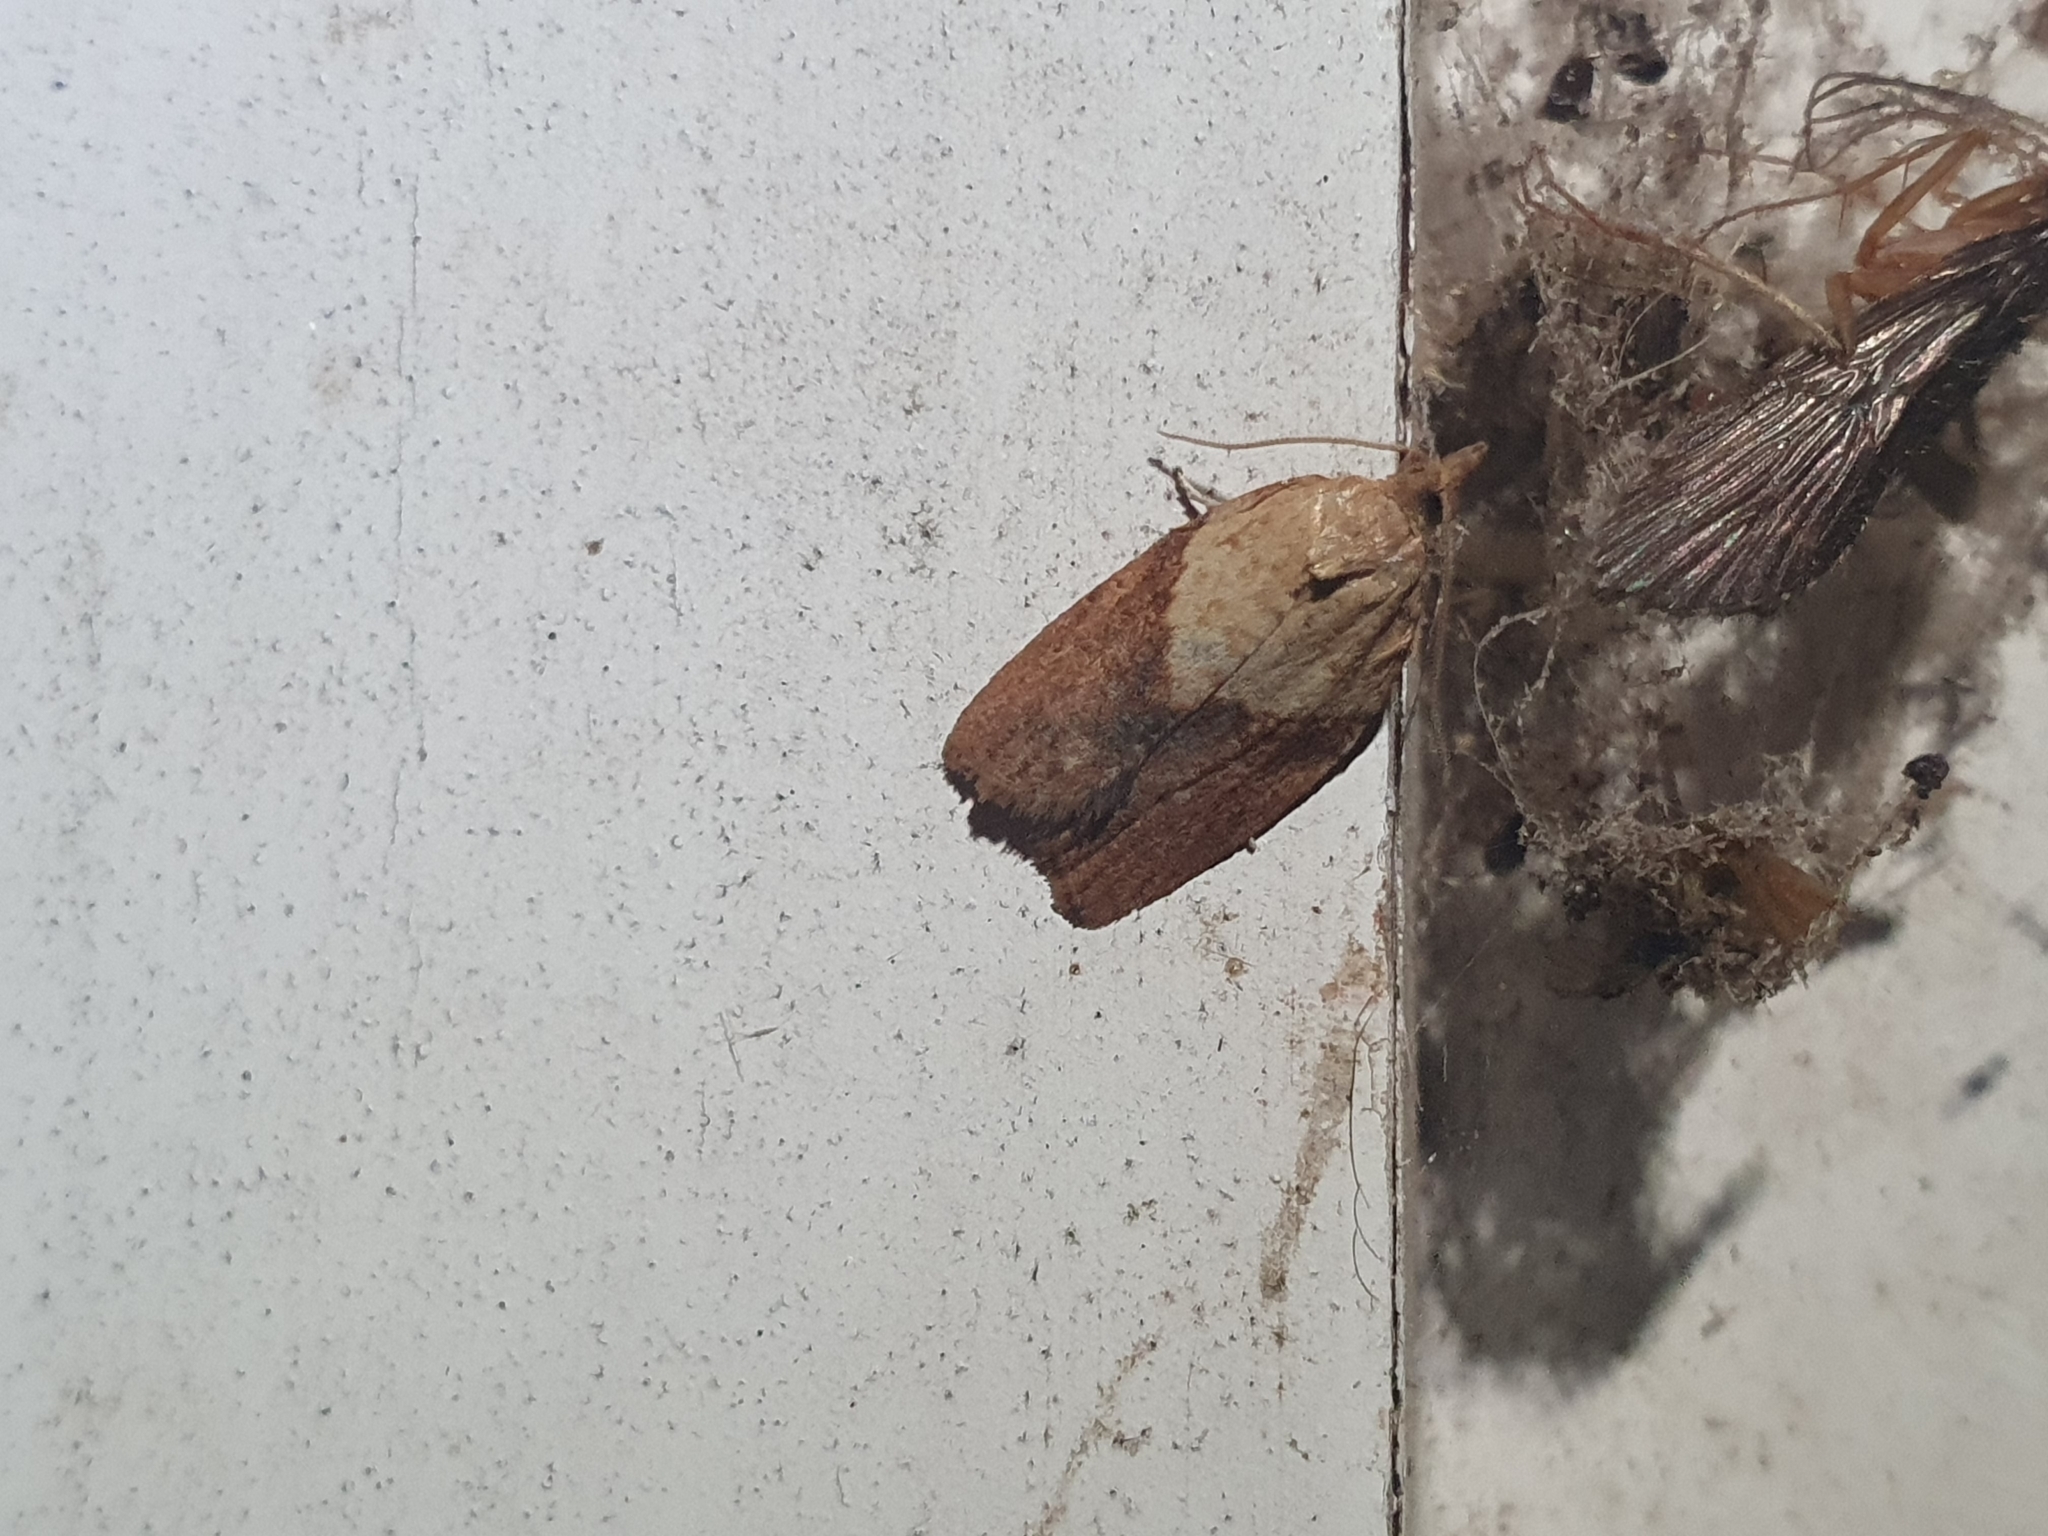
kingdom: Animalia
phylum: Arthropoda
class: Insecta
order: Lepidoptera
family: Tortricidae
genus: Epiphyas
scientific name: Epiphyas postvittana
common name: Light brown apple moth
